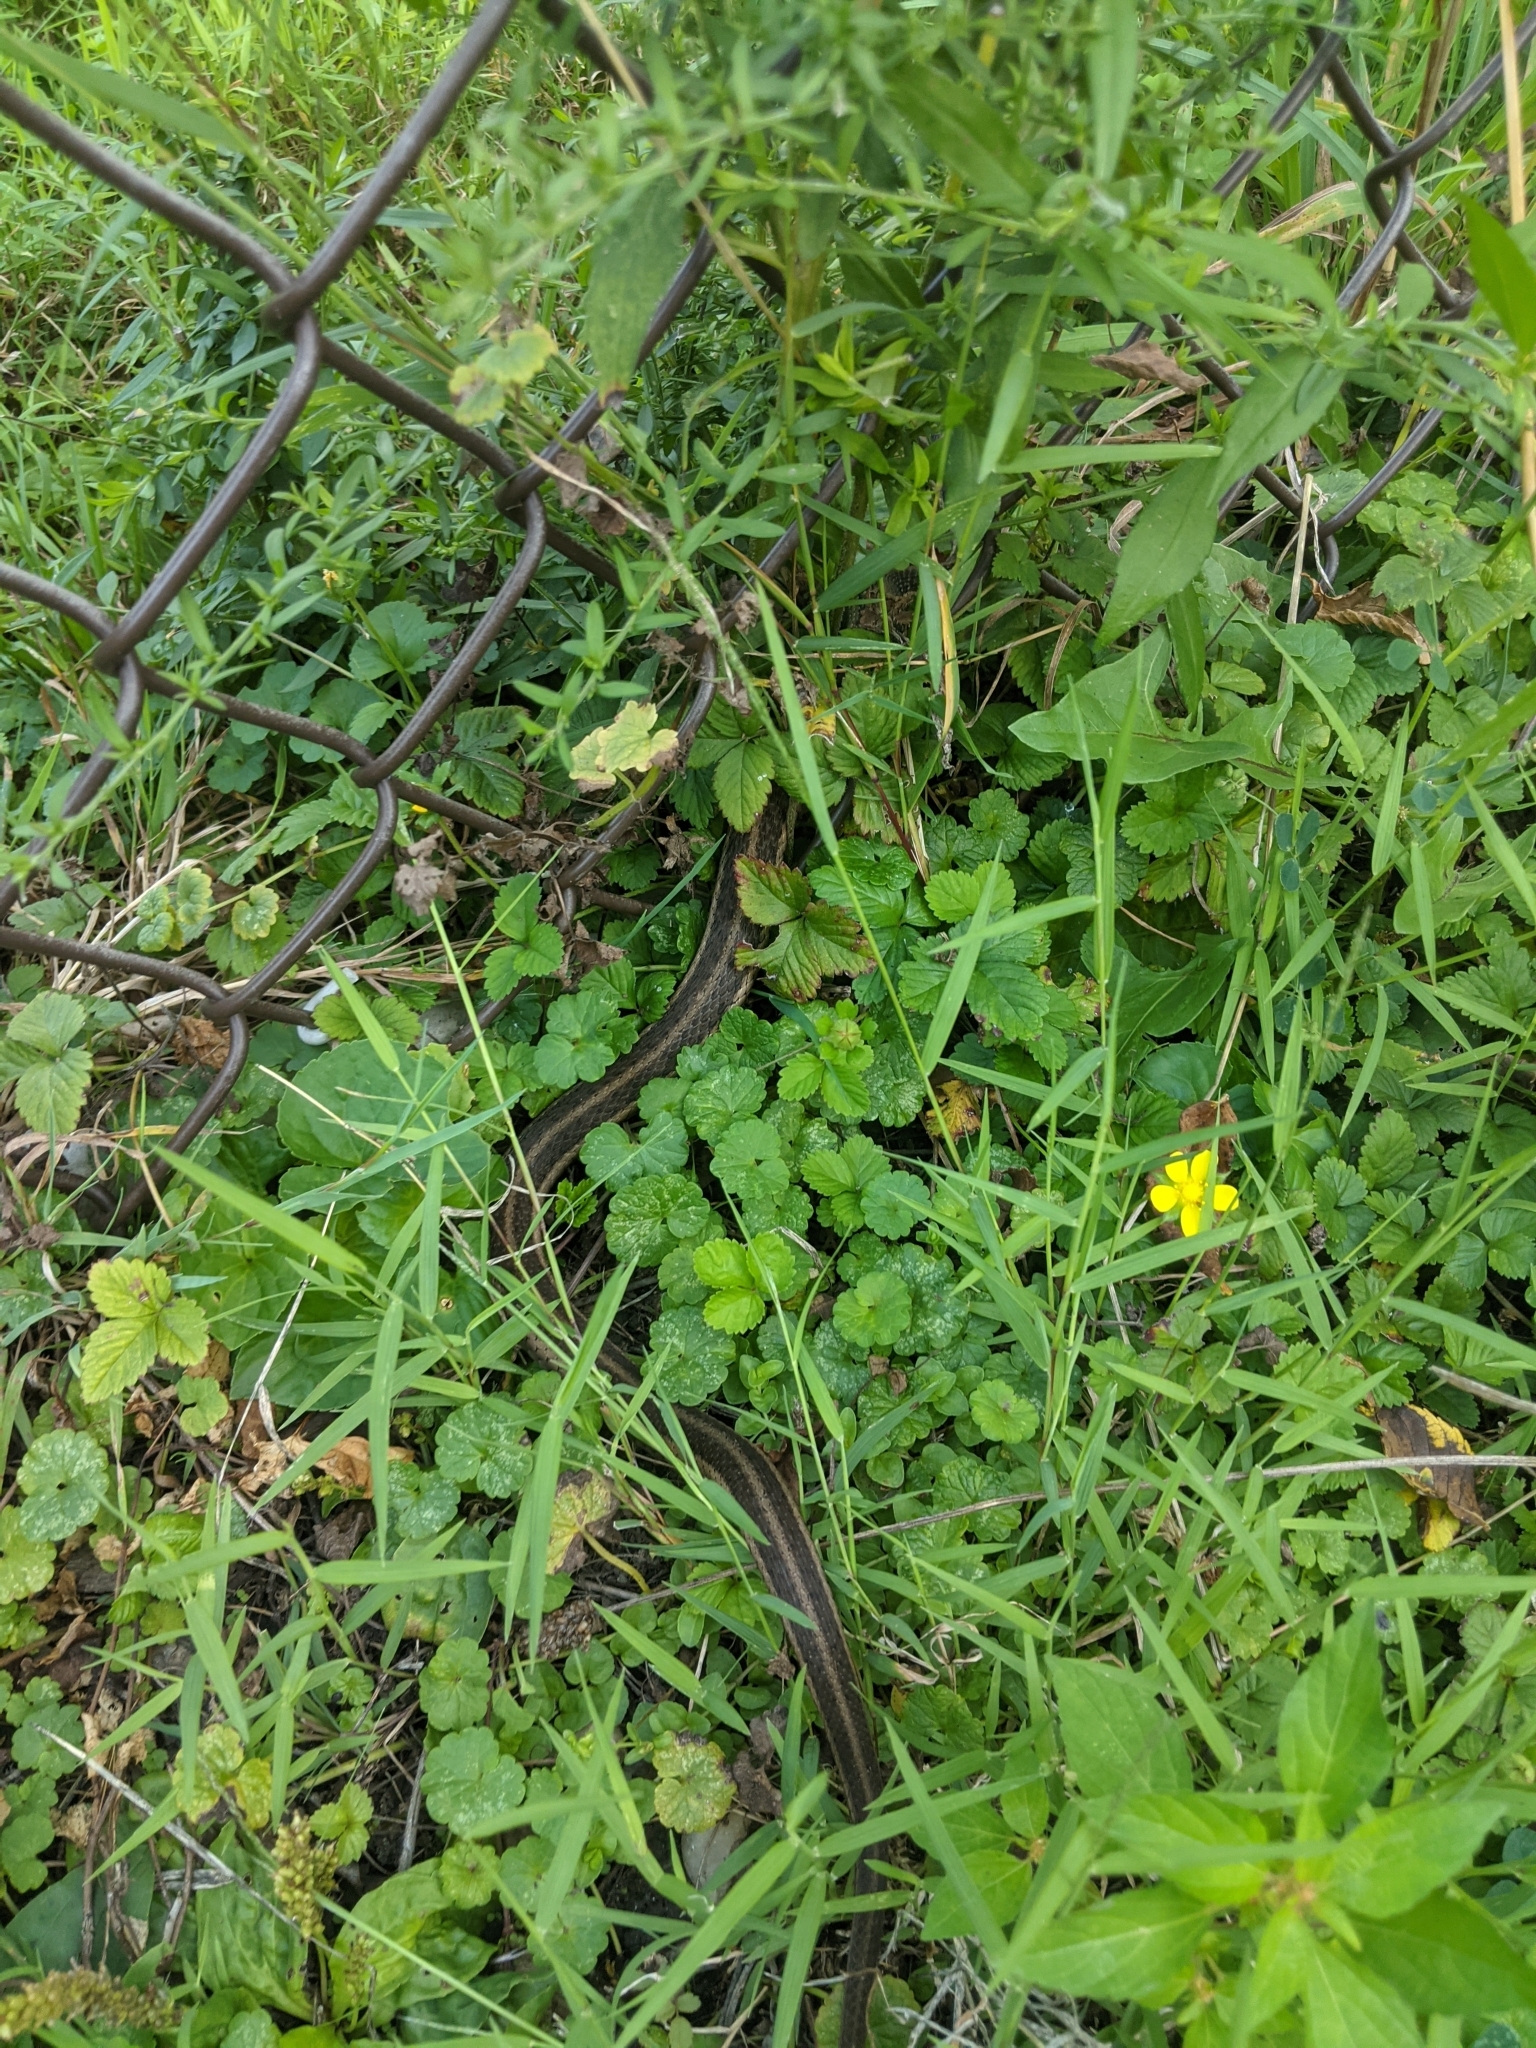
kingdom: Animalia
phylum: Chordata
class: Squamata
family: Colubridae
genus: Thamnophis
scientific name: Thamnophis sirtalis
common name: Common garter snake
